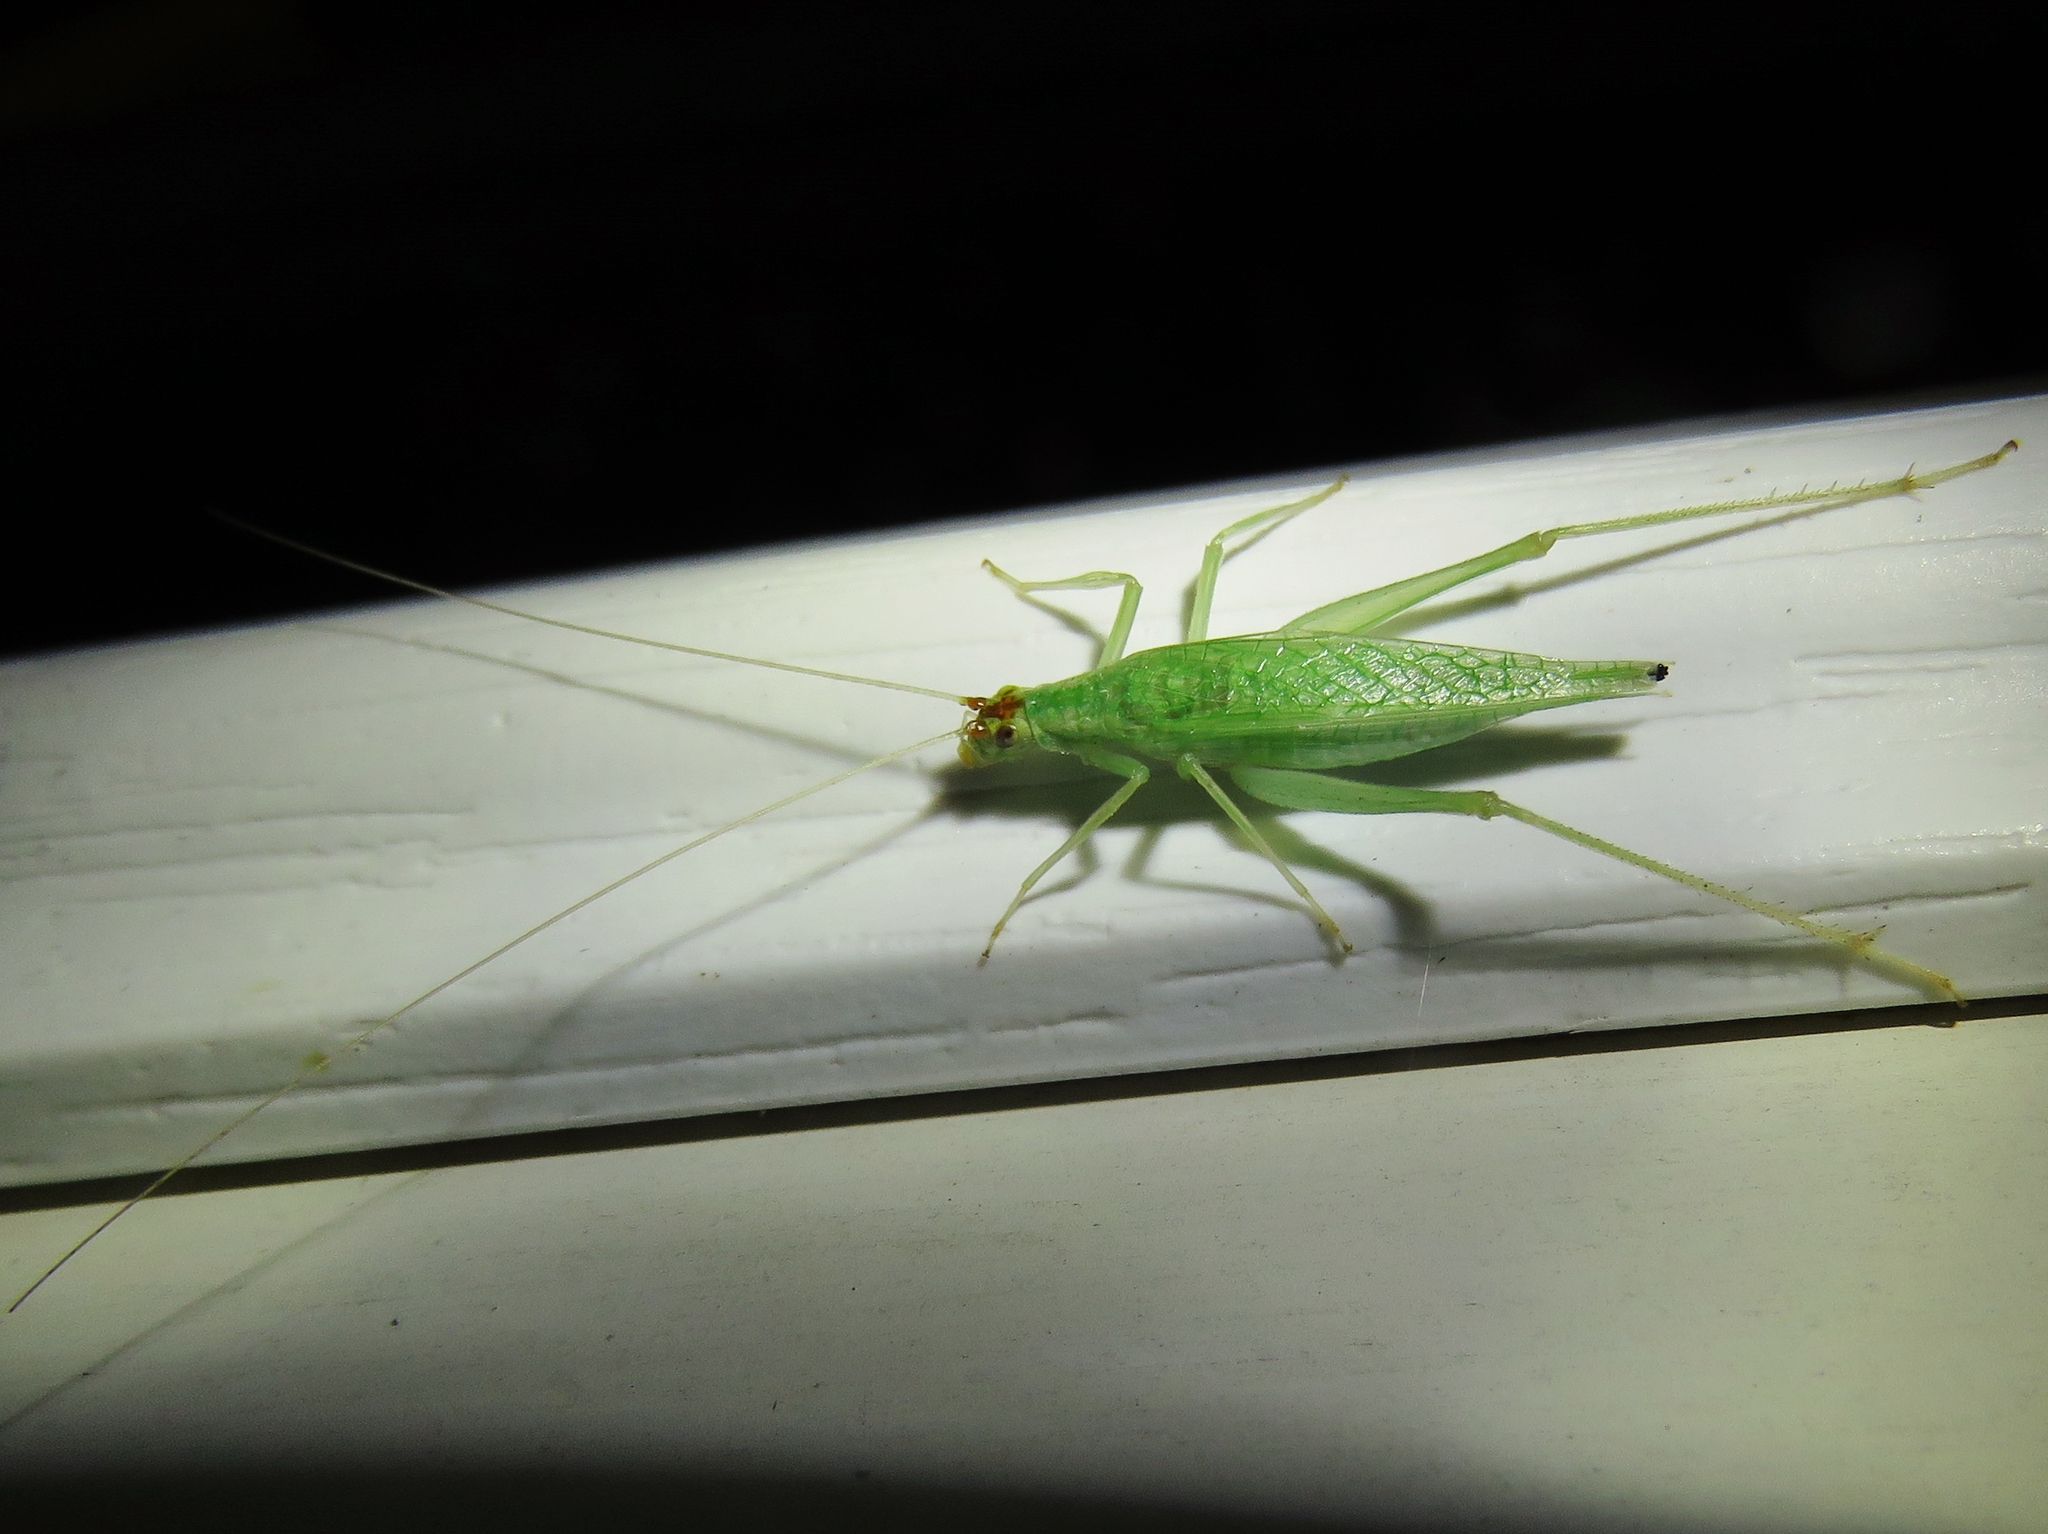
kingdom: Animalia
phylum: Arthropoda
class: Insecta
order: Orthoptera
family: Gryllidae
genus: Oecanthus
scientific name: Oecanthus fultoni
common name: Snowy tree cricket
